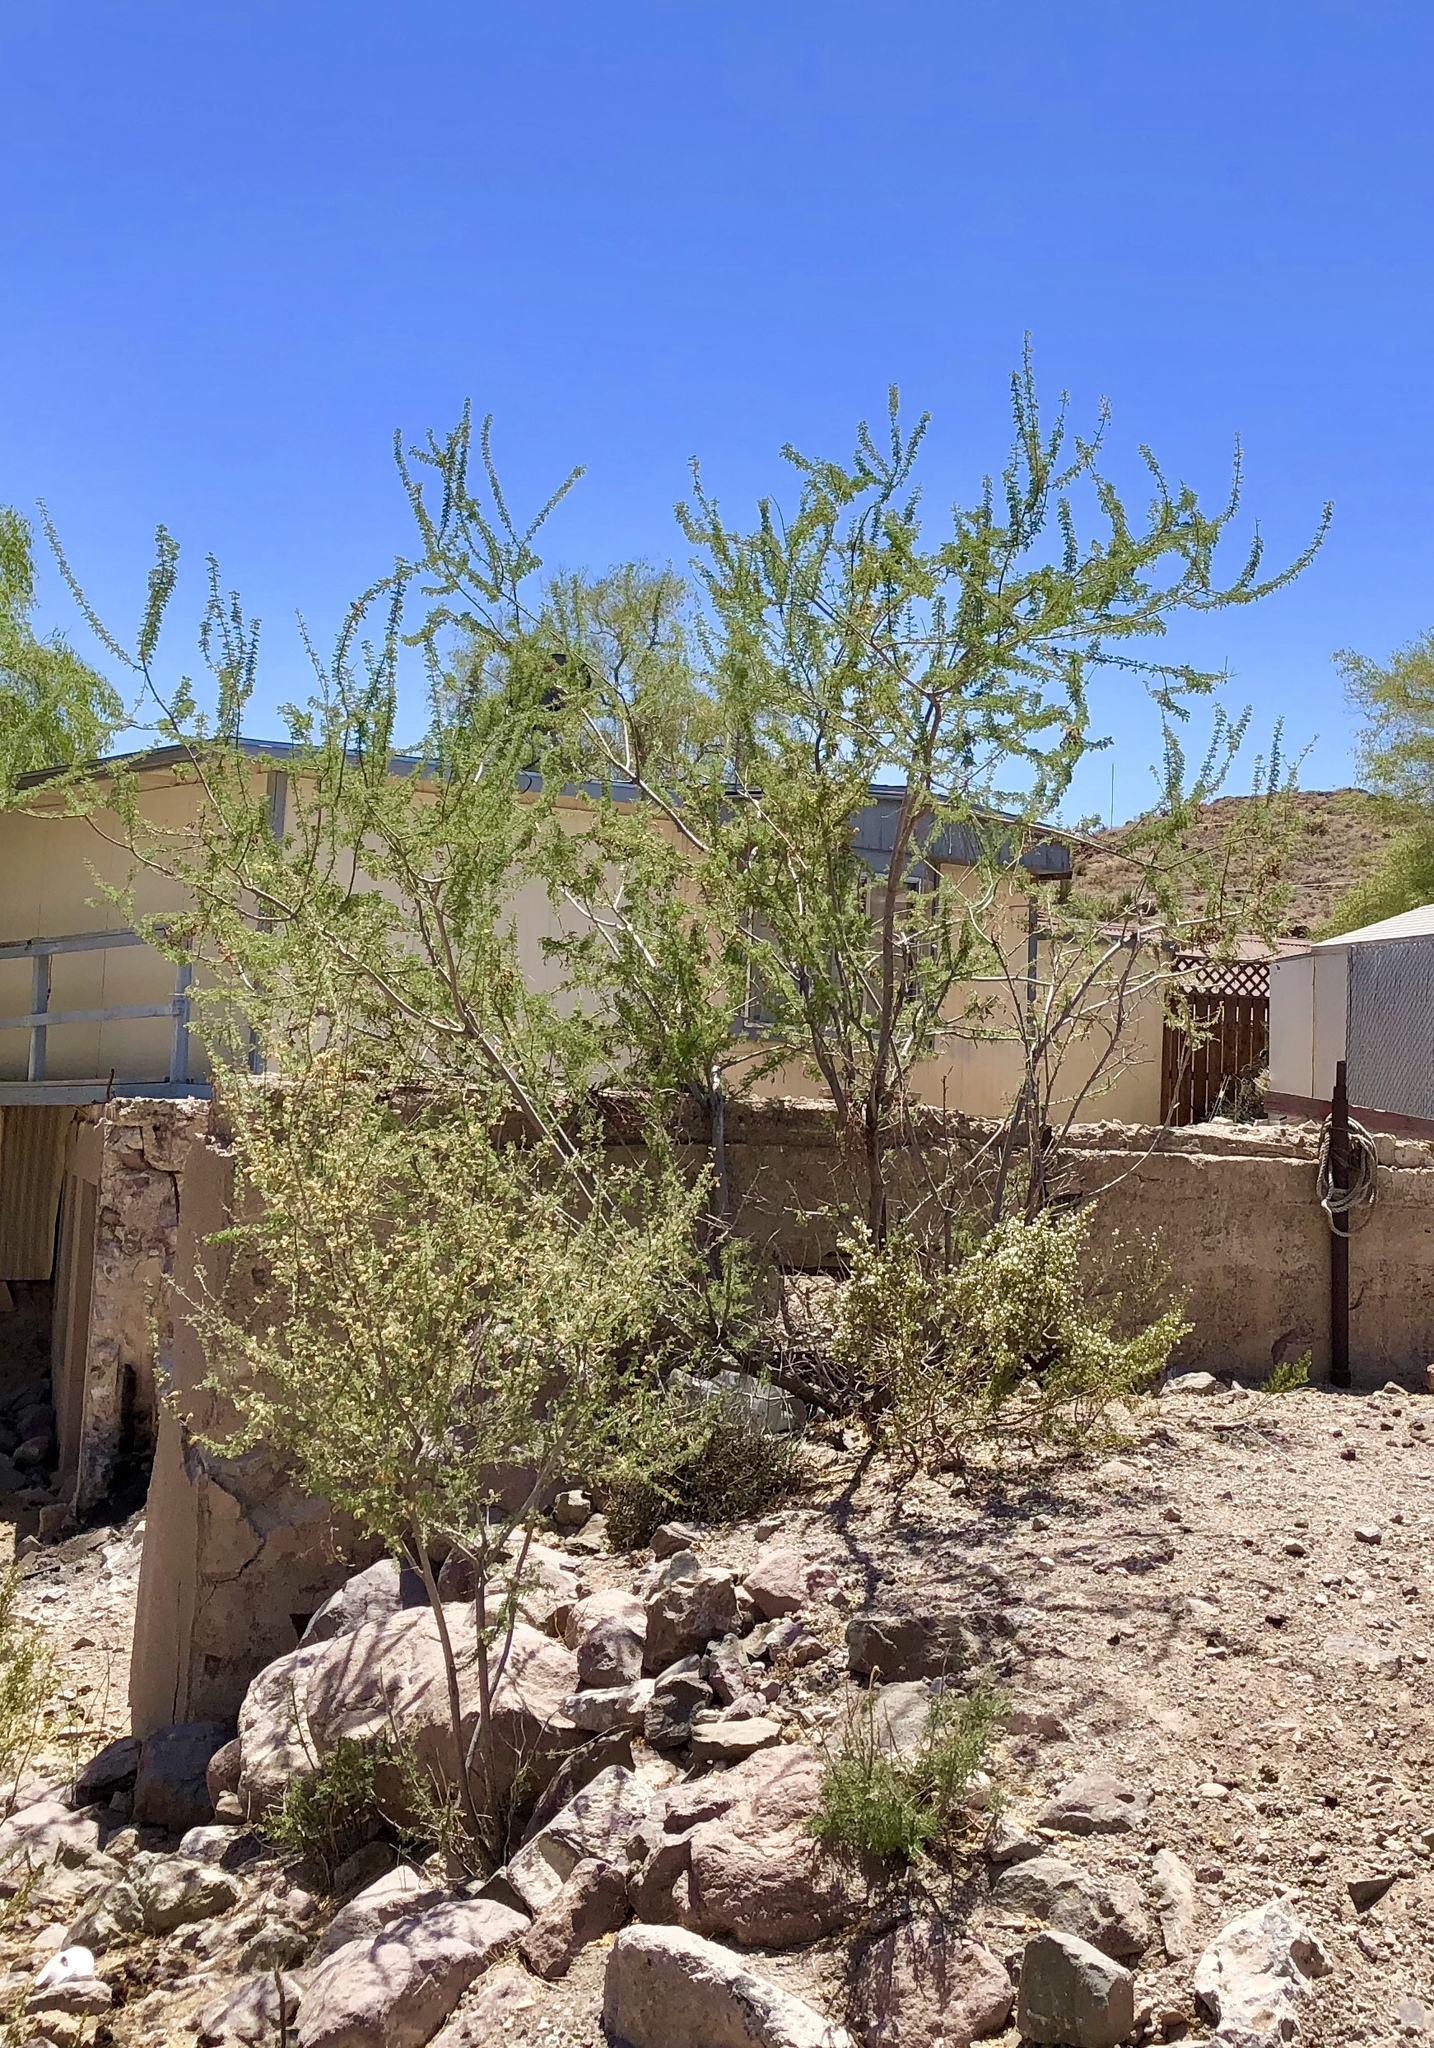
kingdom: Plantae
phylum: Tracheophyta
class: Magnoliopsida
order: Fabales
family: Fabaceae
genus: Senegalia
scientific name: Senegalia greggii
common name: Texas-mimosa
